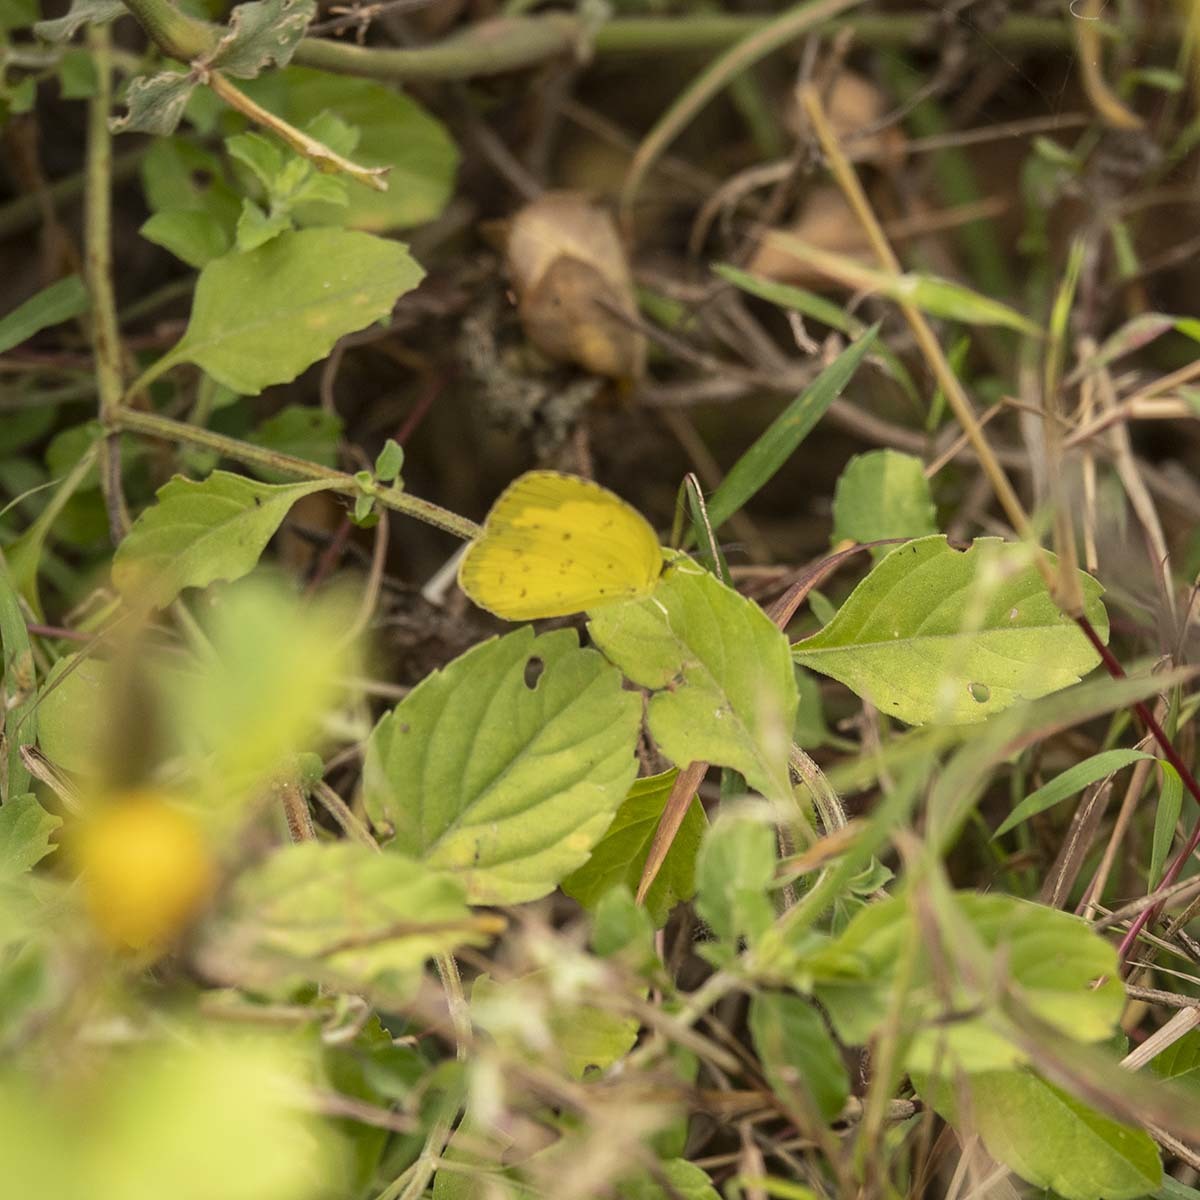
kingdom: Animalia
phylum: Arthropoda
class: Insecta
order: Lepidoptera
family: Pieridae
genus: Eurema
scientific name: Eurema hecabe
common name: Pale grass yellow
